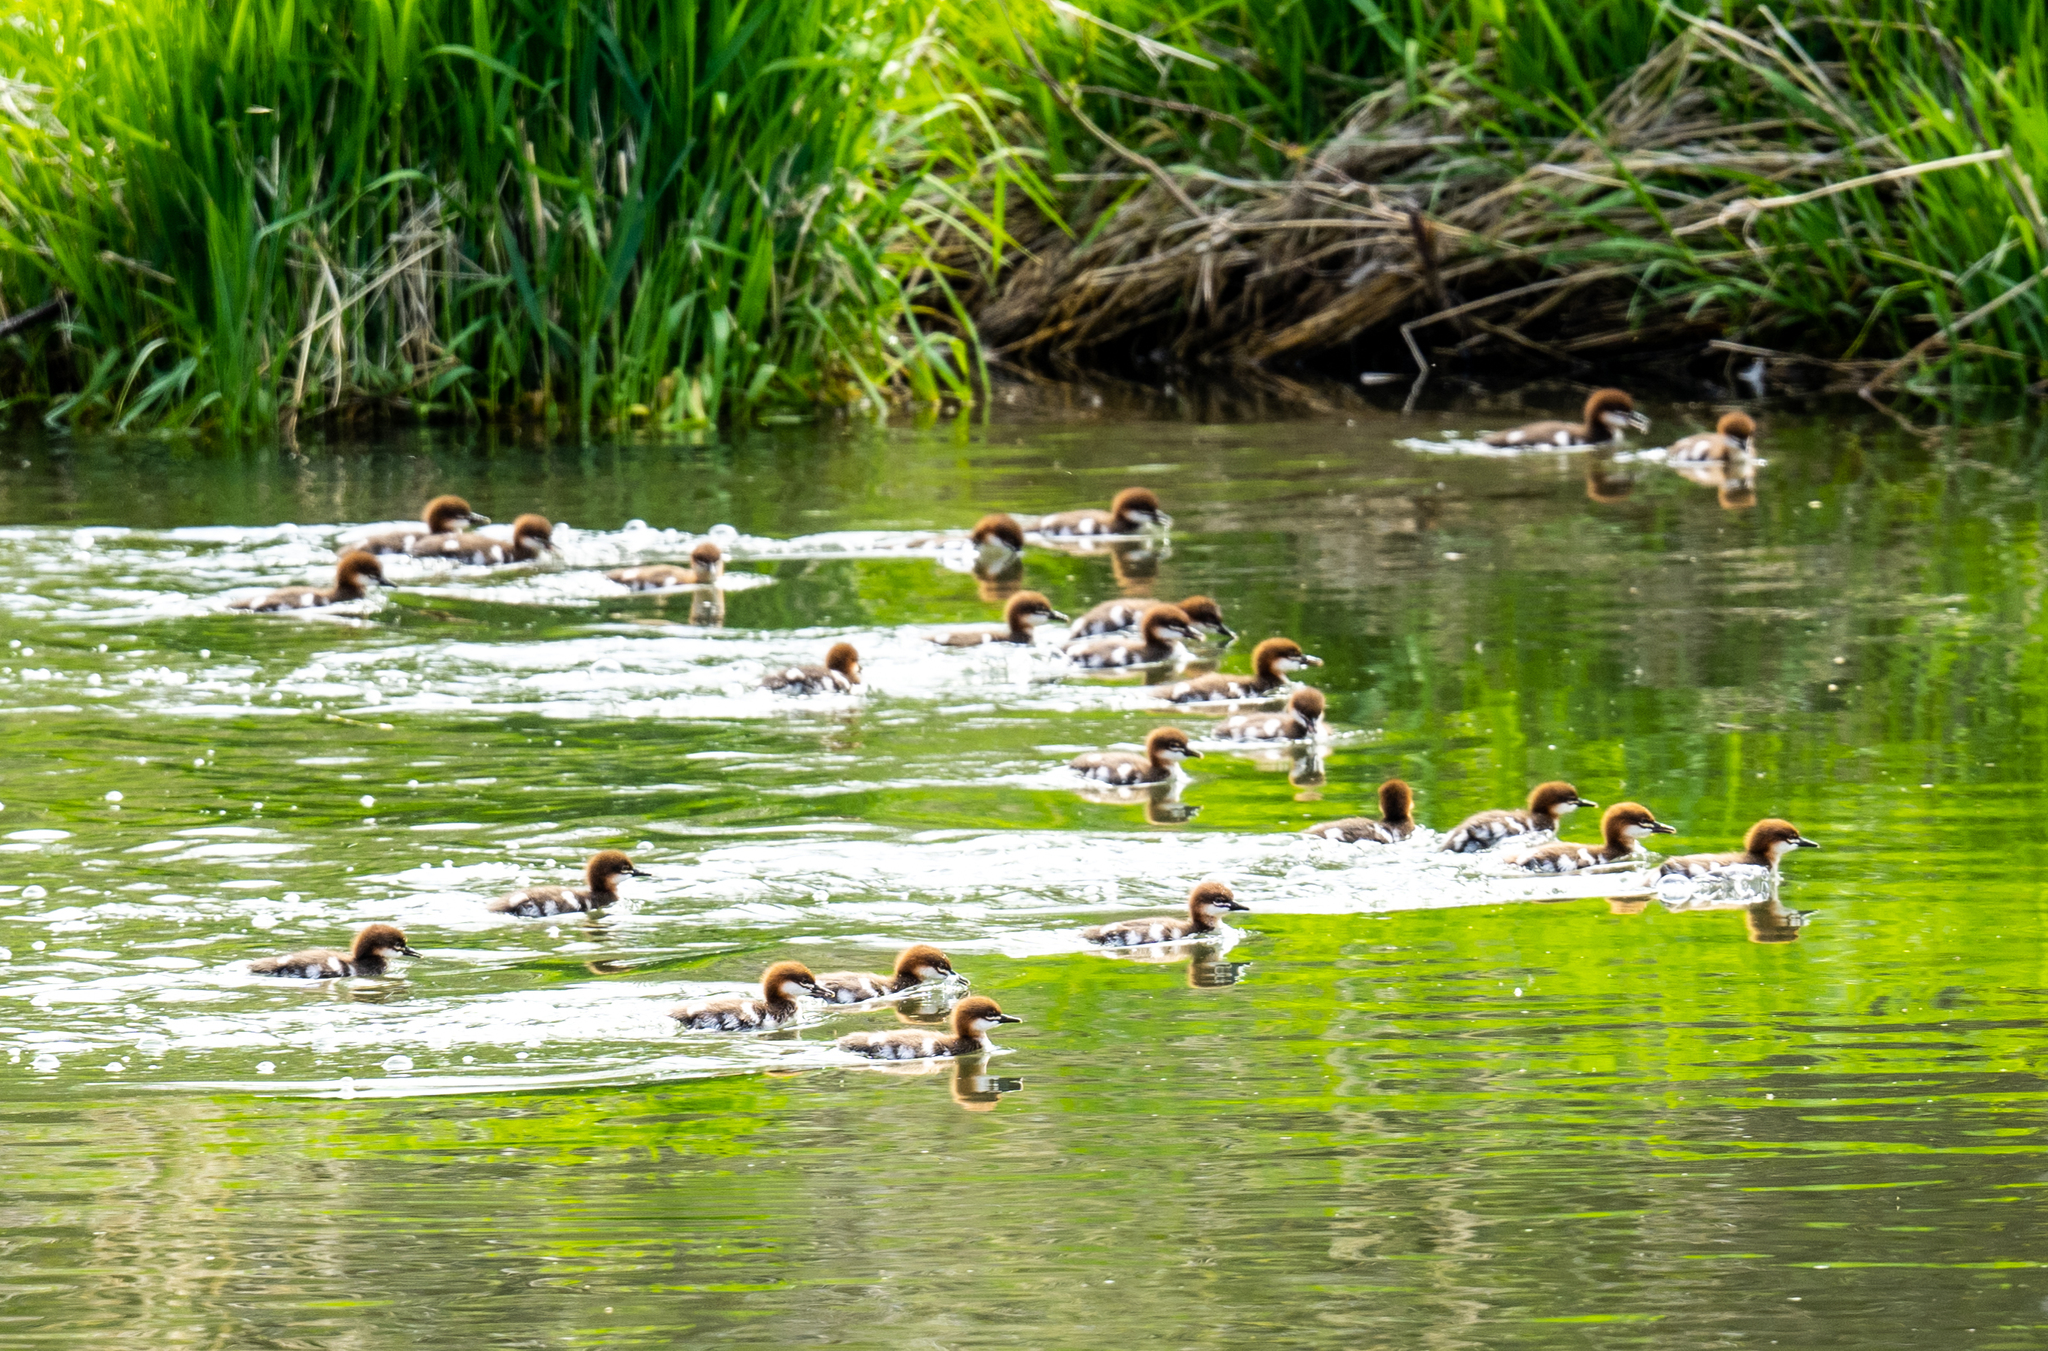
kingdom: Animalia
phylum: Chordata
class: Aves
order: Anseriformes
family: Anatidae
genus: Mergus
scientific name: Mergus merganser
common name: Common merganser
